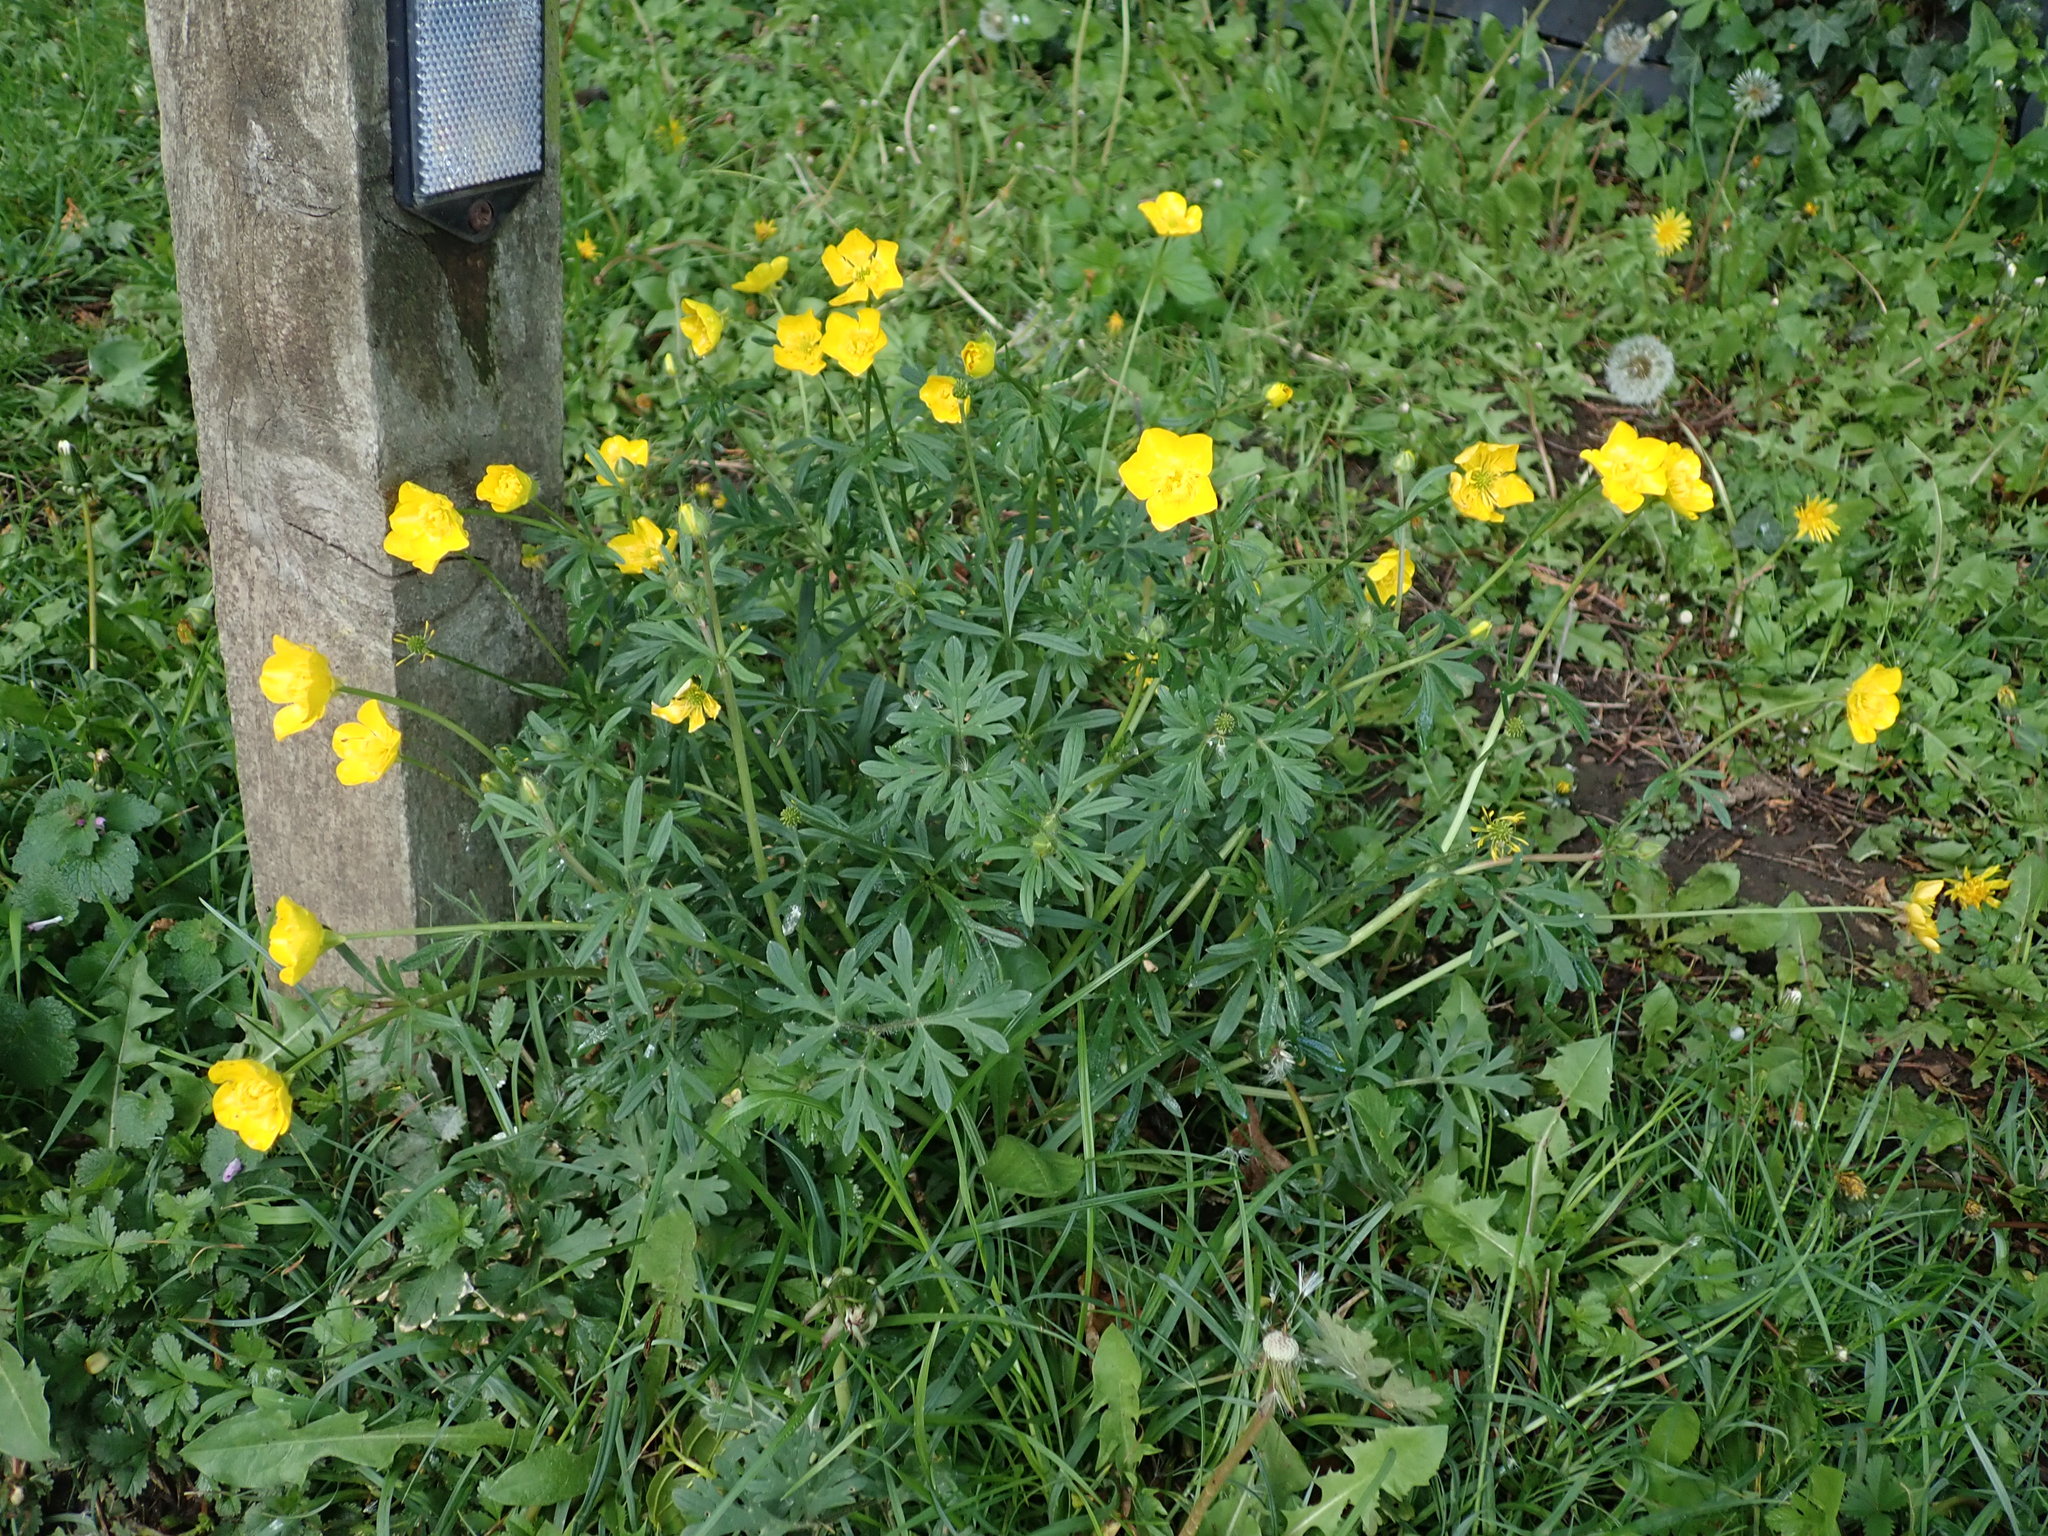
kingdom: Plantae
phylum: Tracheophyta
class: Magnoliopsida
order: Ranunculales
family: Ranunculaceae
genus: Ranunculus
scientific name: Ranunculus bulbosus
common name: Bulbous buttercup
